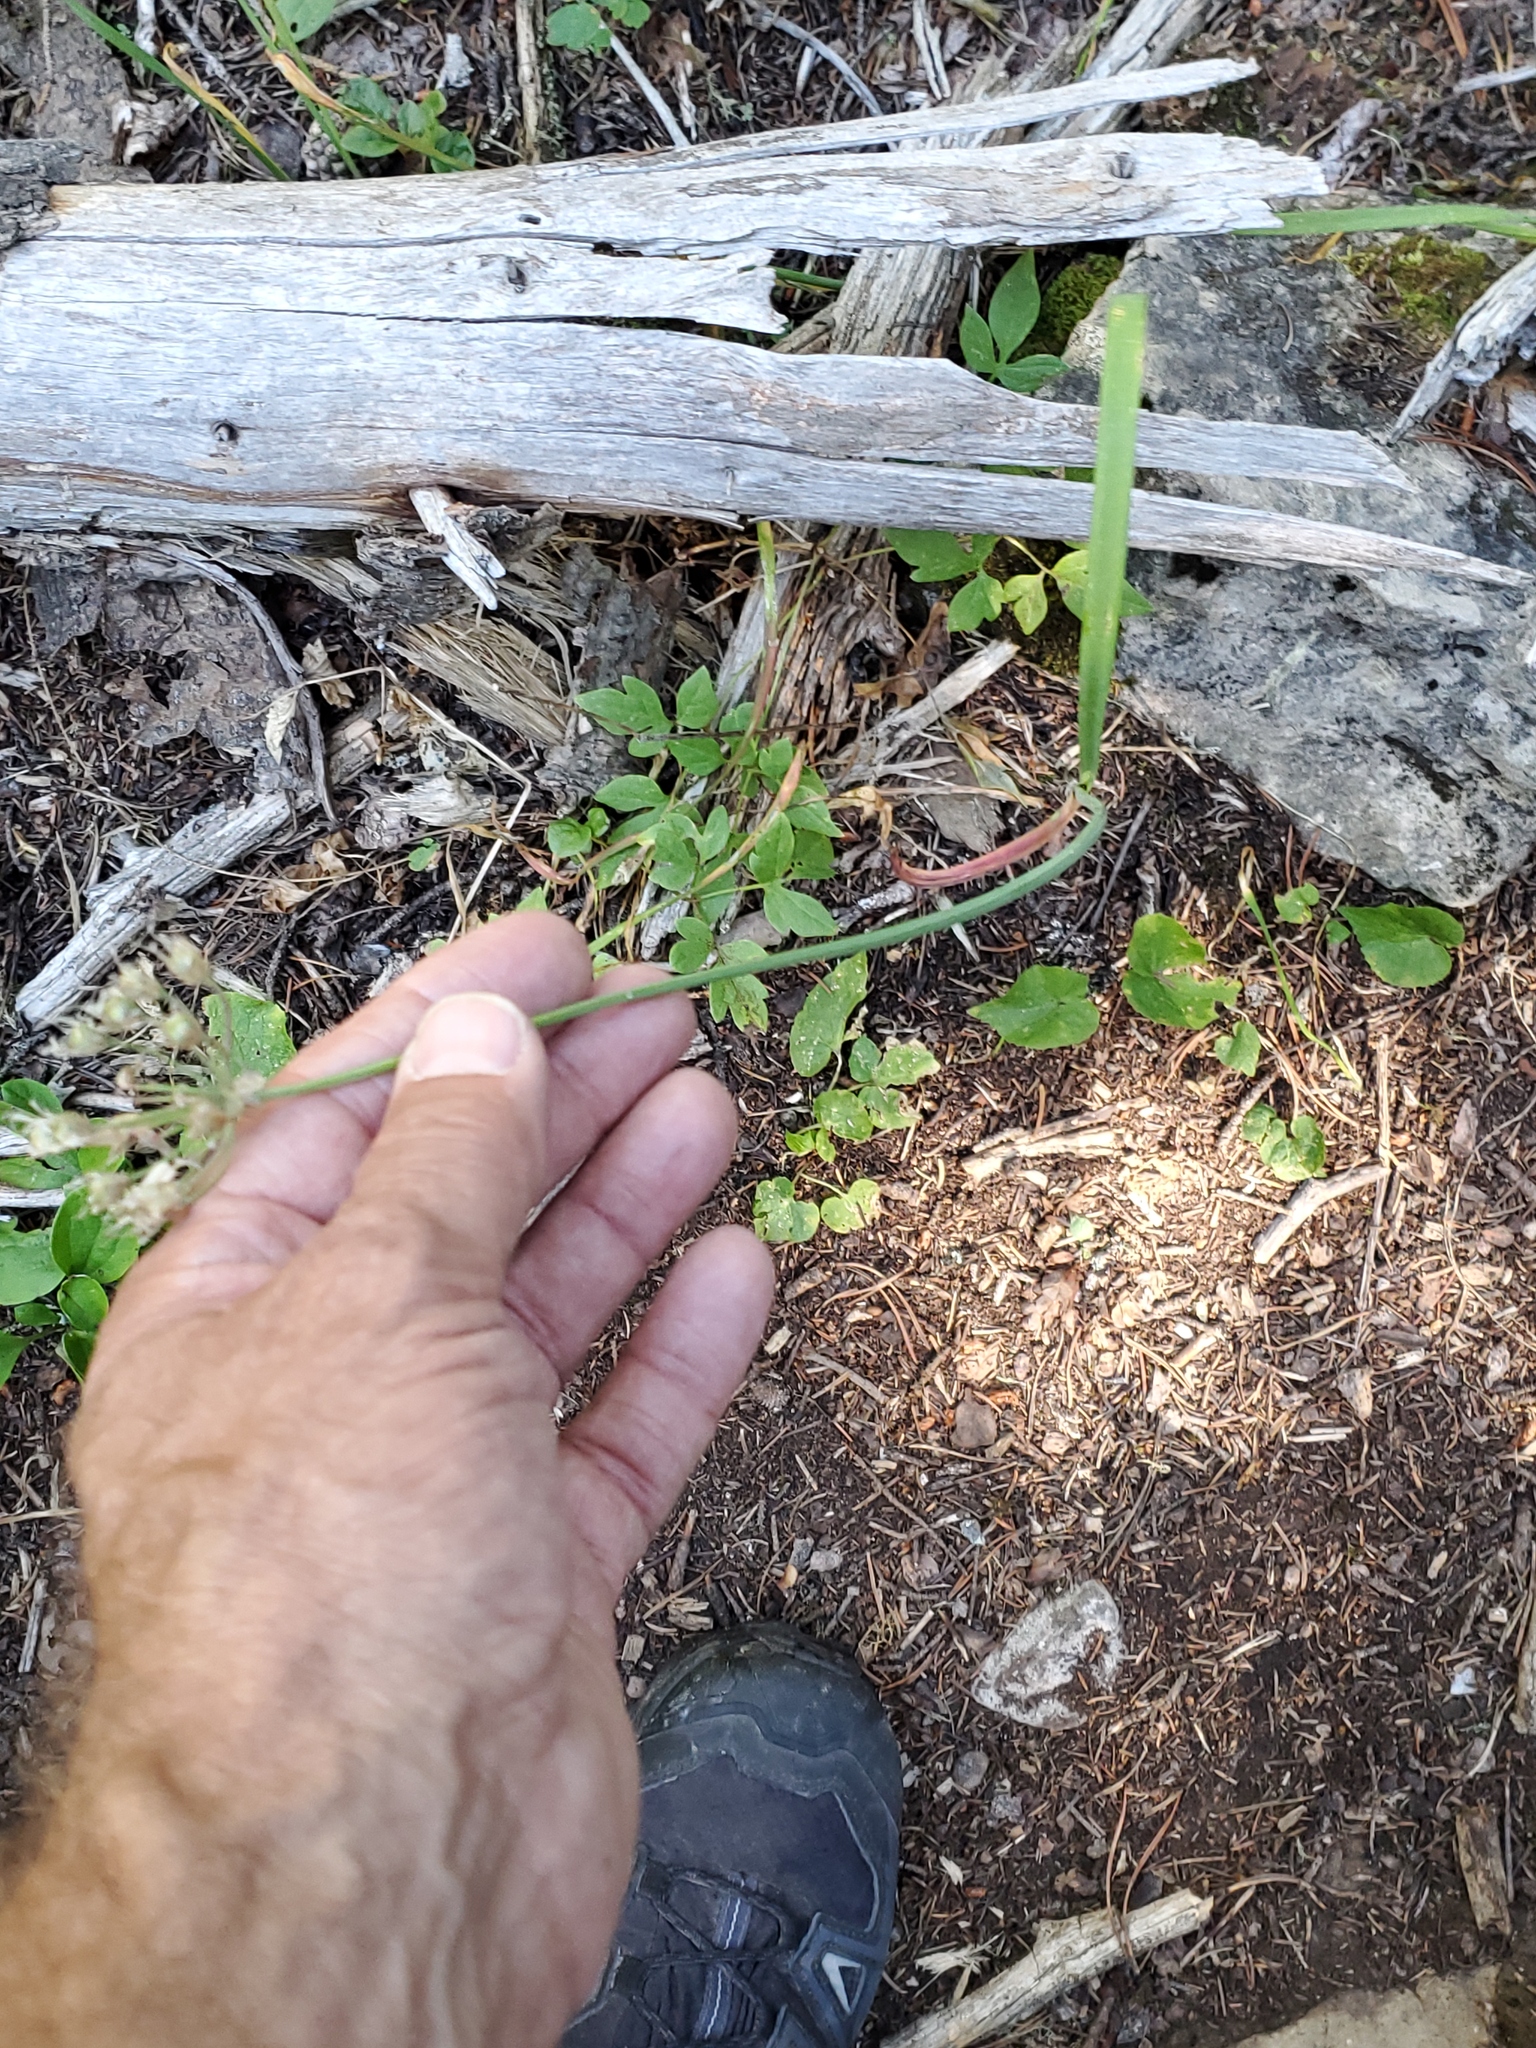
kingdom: Plantae
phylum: Tracheophyta
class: Liliopsida
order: Asparagales
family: Amaryllidaceae
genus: Allium
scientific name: Allium brevistylum
